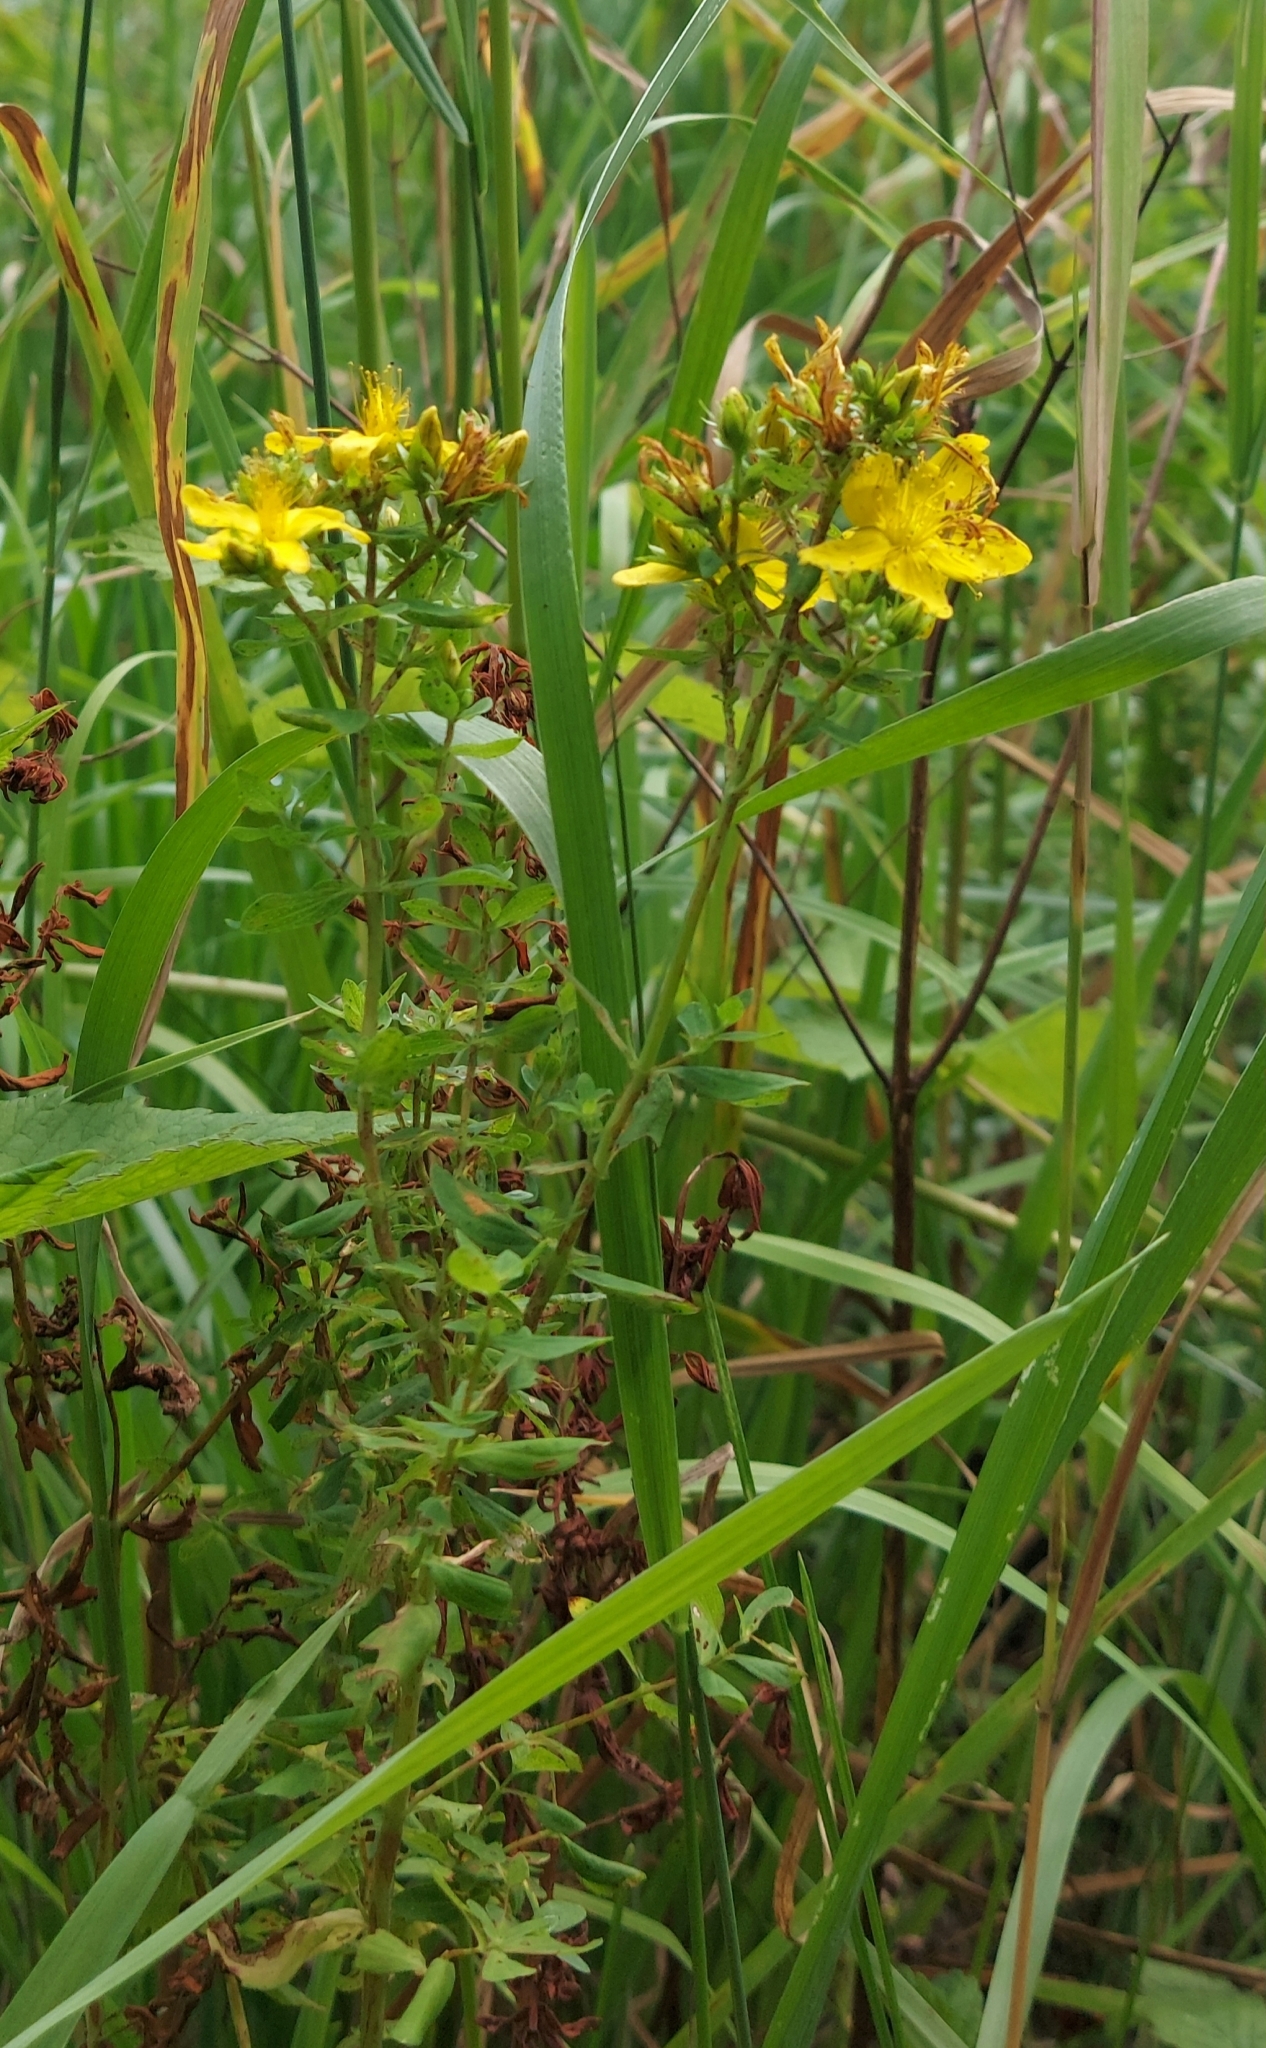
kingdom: Plantae
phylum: Tracheophyta
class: Magnoliopsida
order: Malpighiales
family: Hypericaceae
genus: Hypericum
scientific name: Hypericum perforatum
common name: Common st. johnswort
